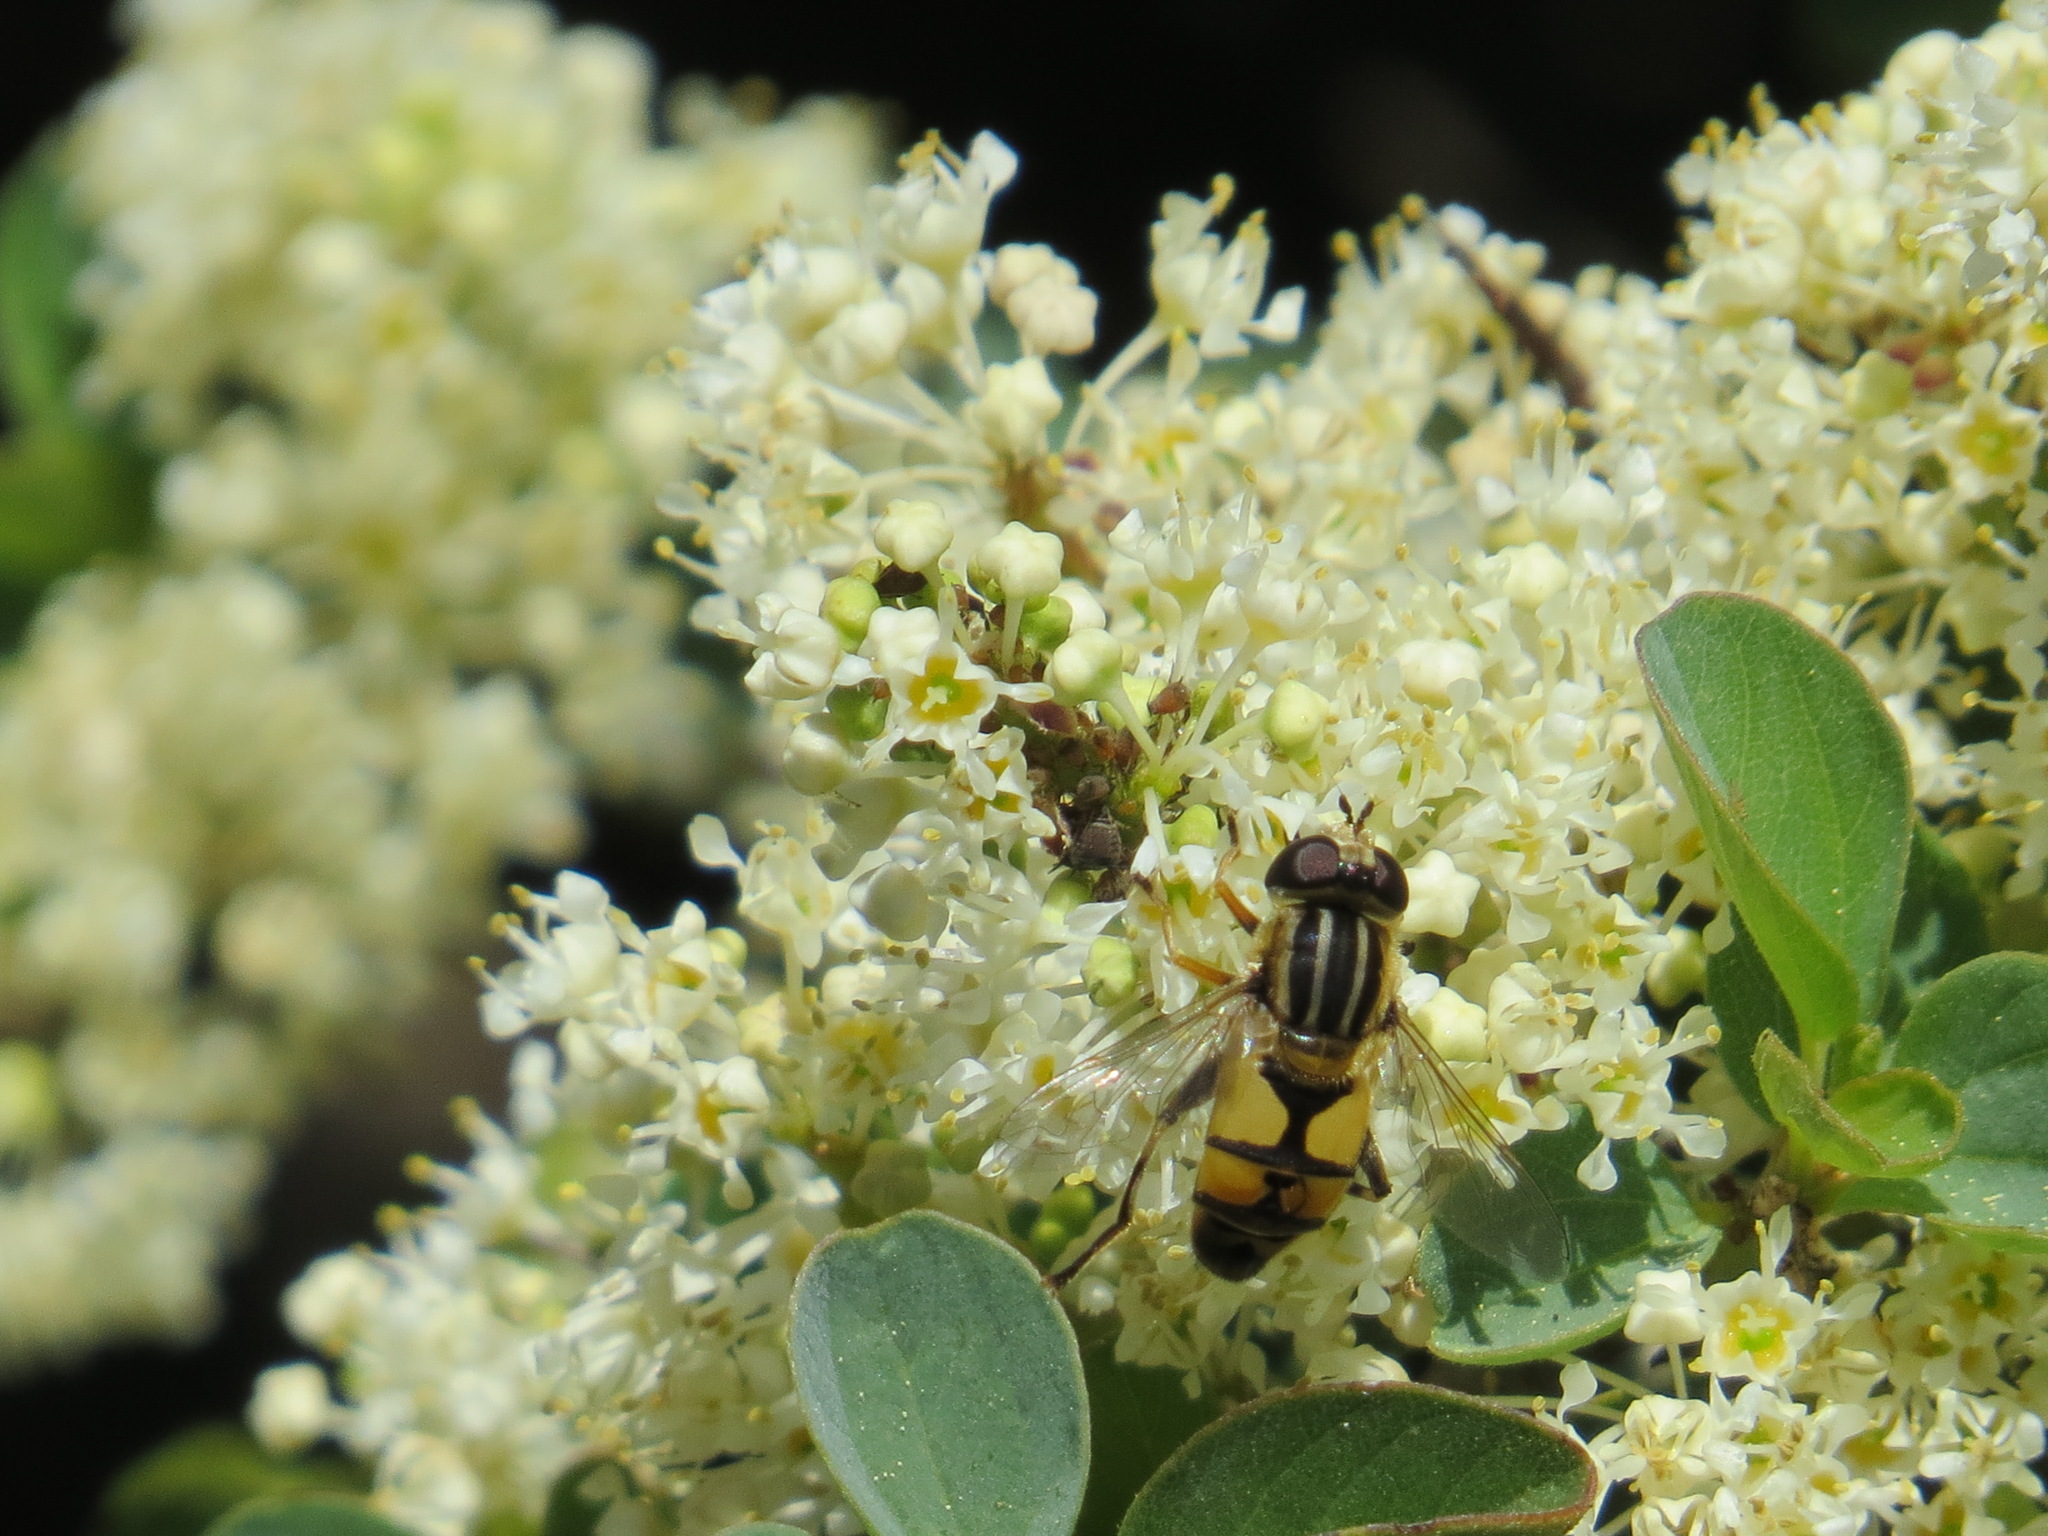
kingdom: Animalia
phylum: Arthropoda
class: Insecta
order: Diptera
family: Syrphidae
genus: Helophilus
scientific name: Helophilus latifrons
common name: Broad-headed marsh fly
